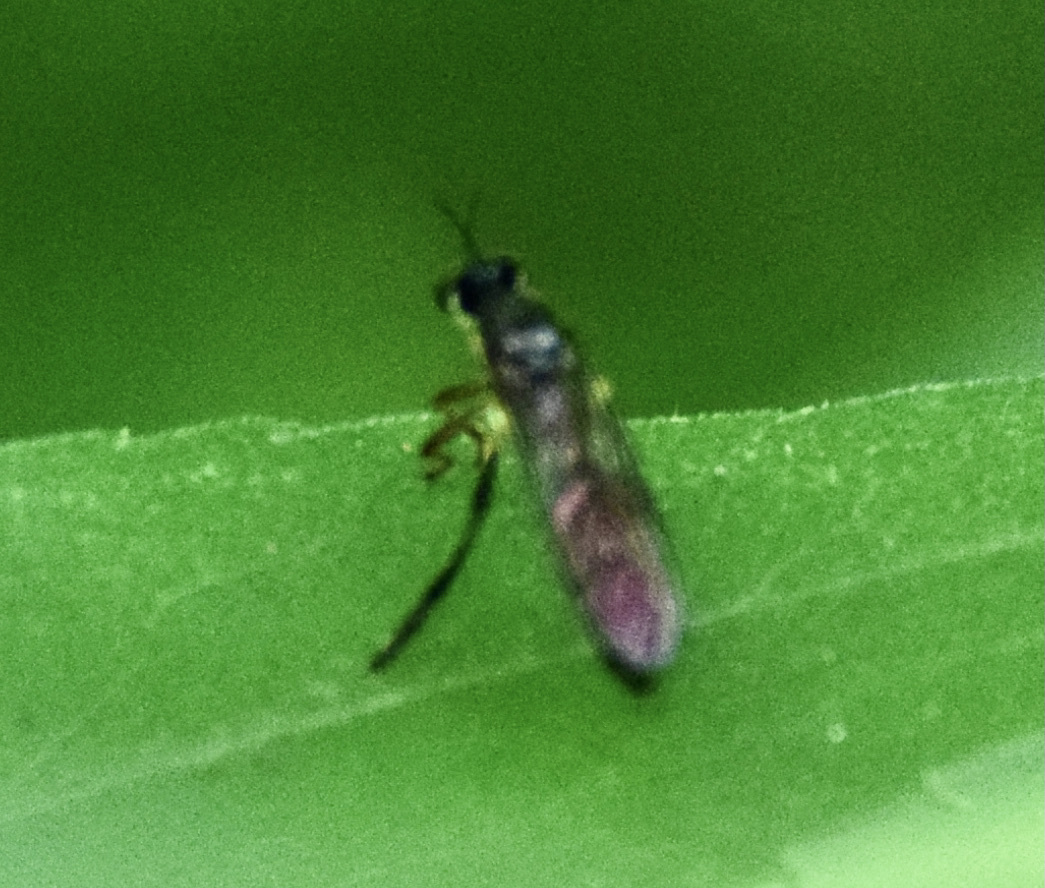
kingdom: Animalia
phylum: Arthropoda
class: Insecta
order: Diptera
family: Asilidae
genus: Dioctria
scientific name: Dioctria hyalipennis
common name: Stripe-legged robberfly
